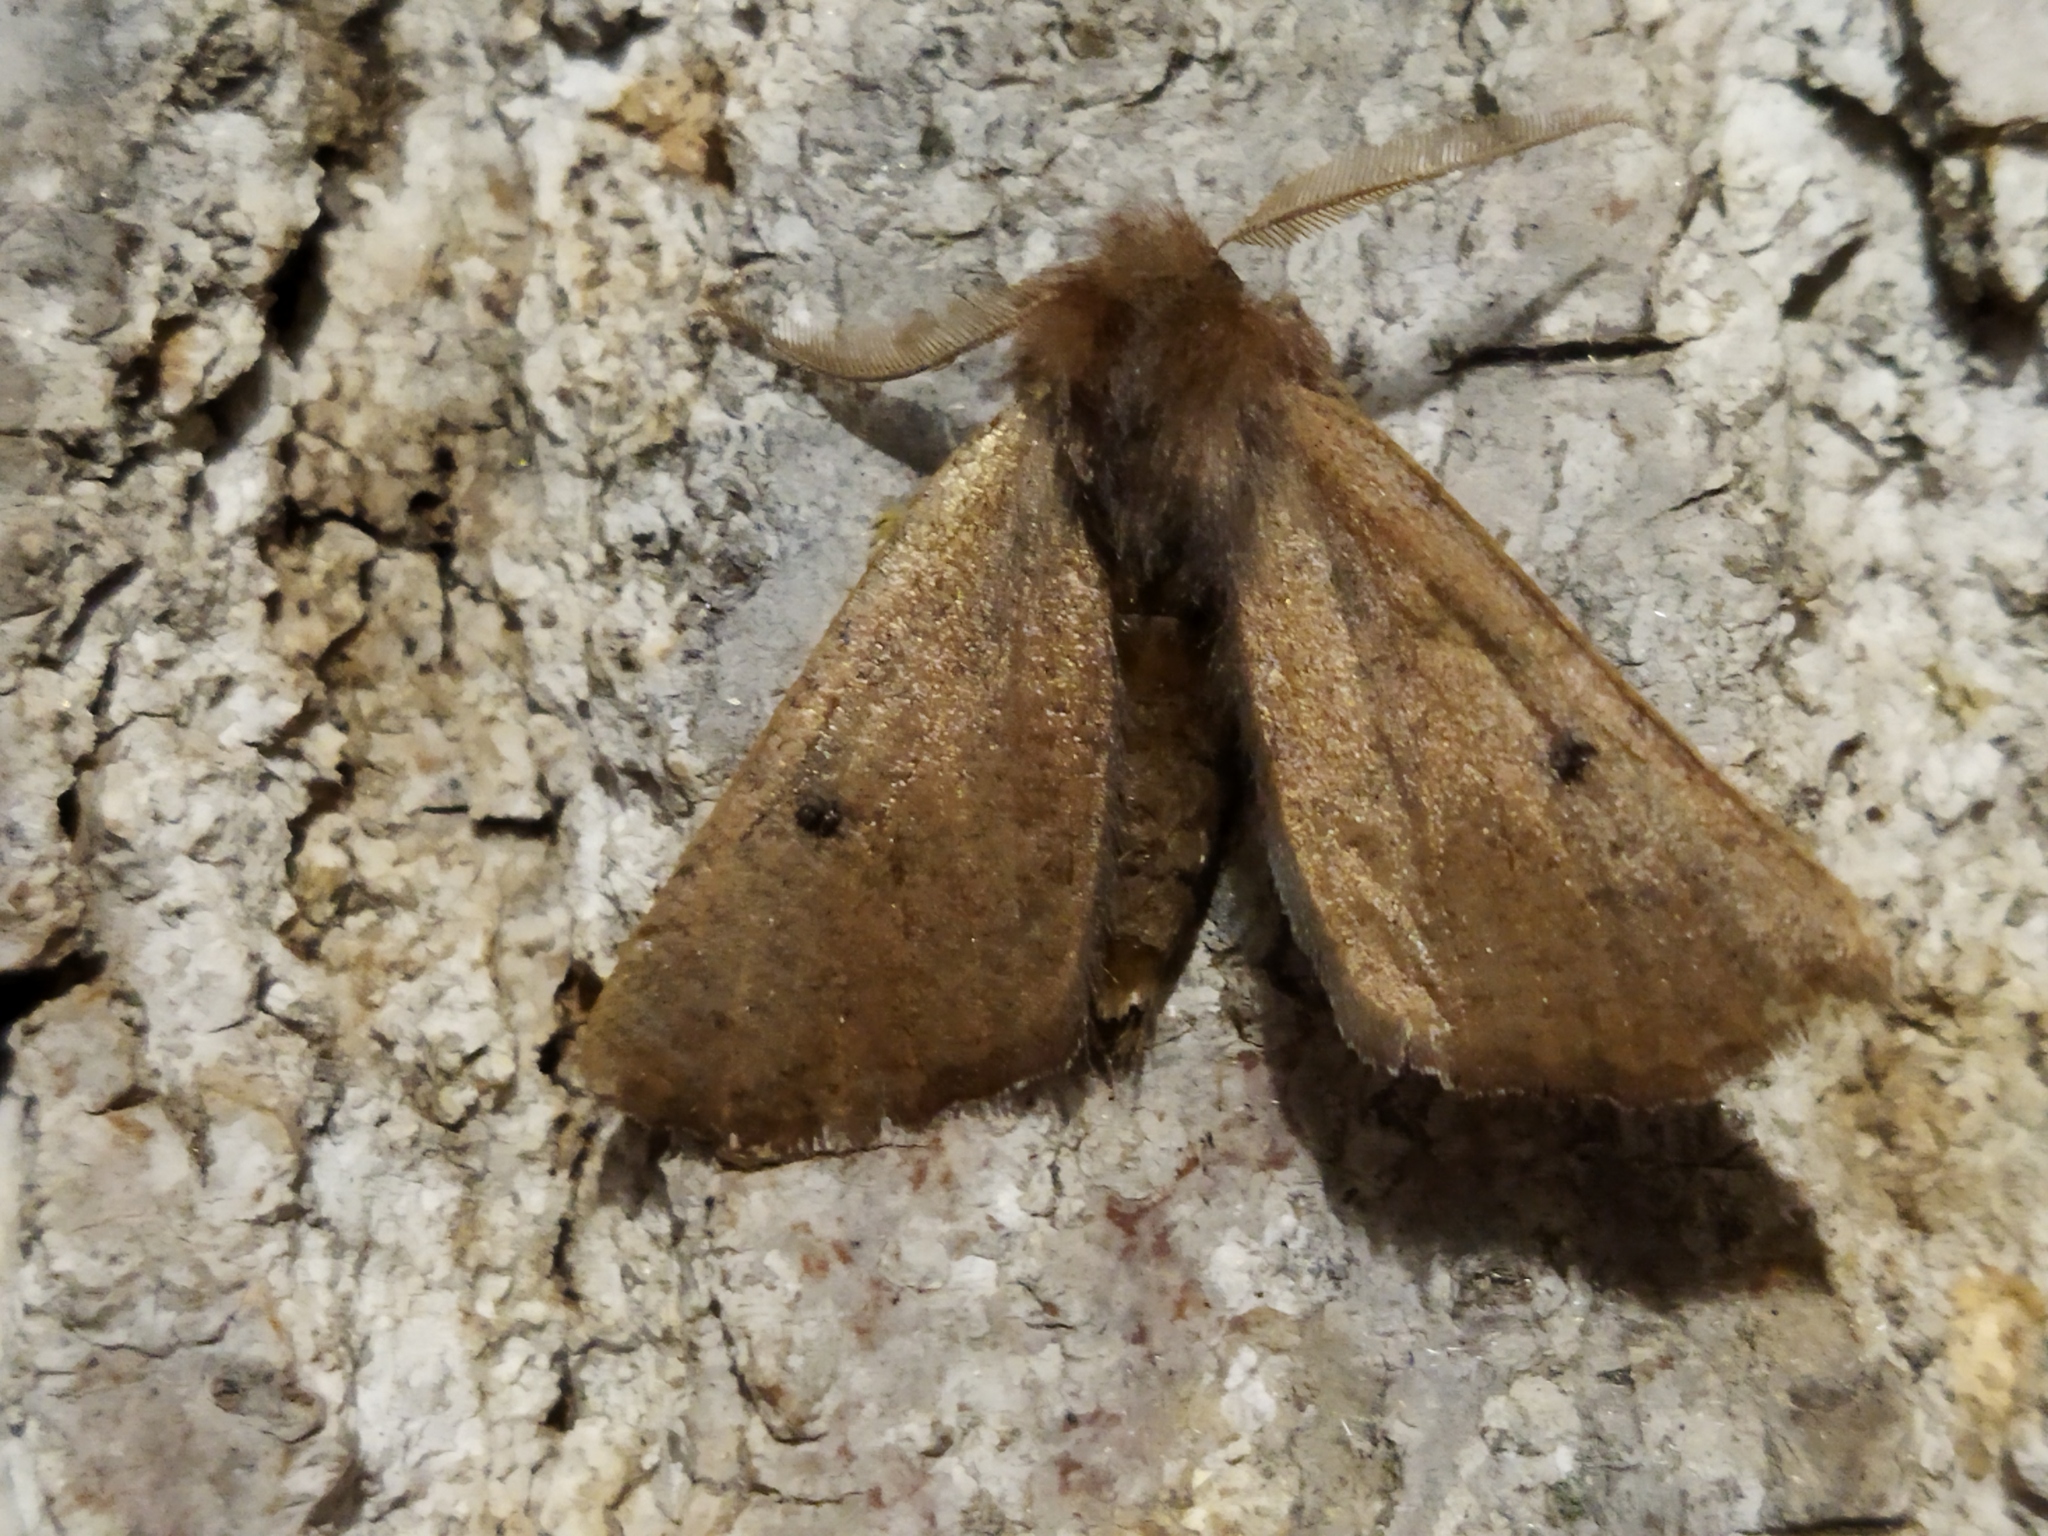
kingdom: Animalia
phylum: Arthropoda
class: Insecta
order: Lepidoptera
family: Geometridae
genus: Dasycorsa
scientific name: Dasycorsa modesta
